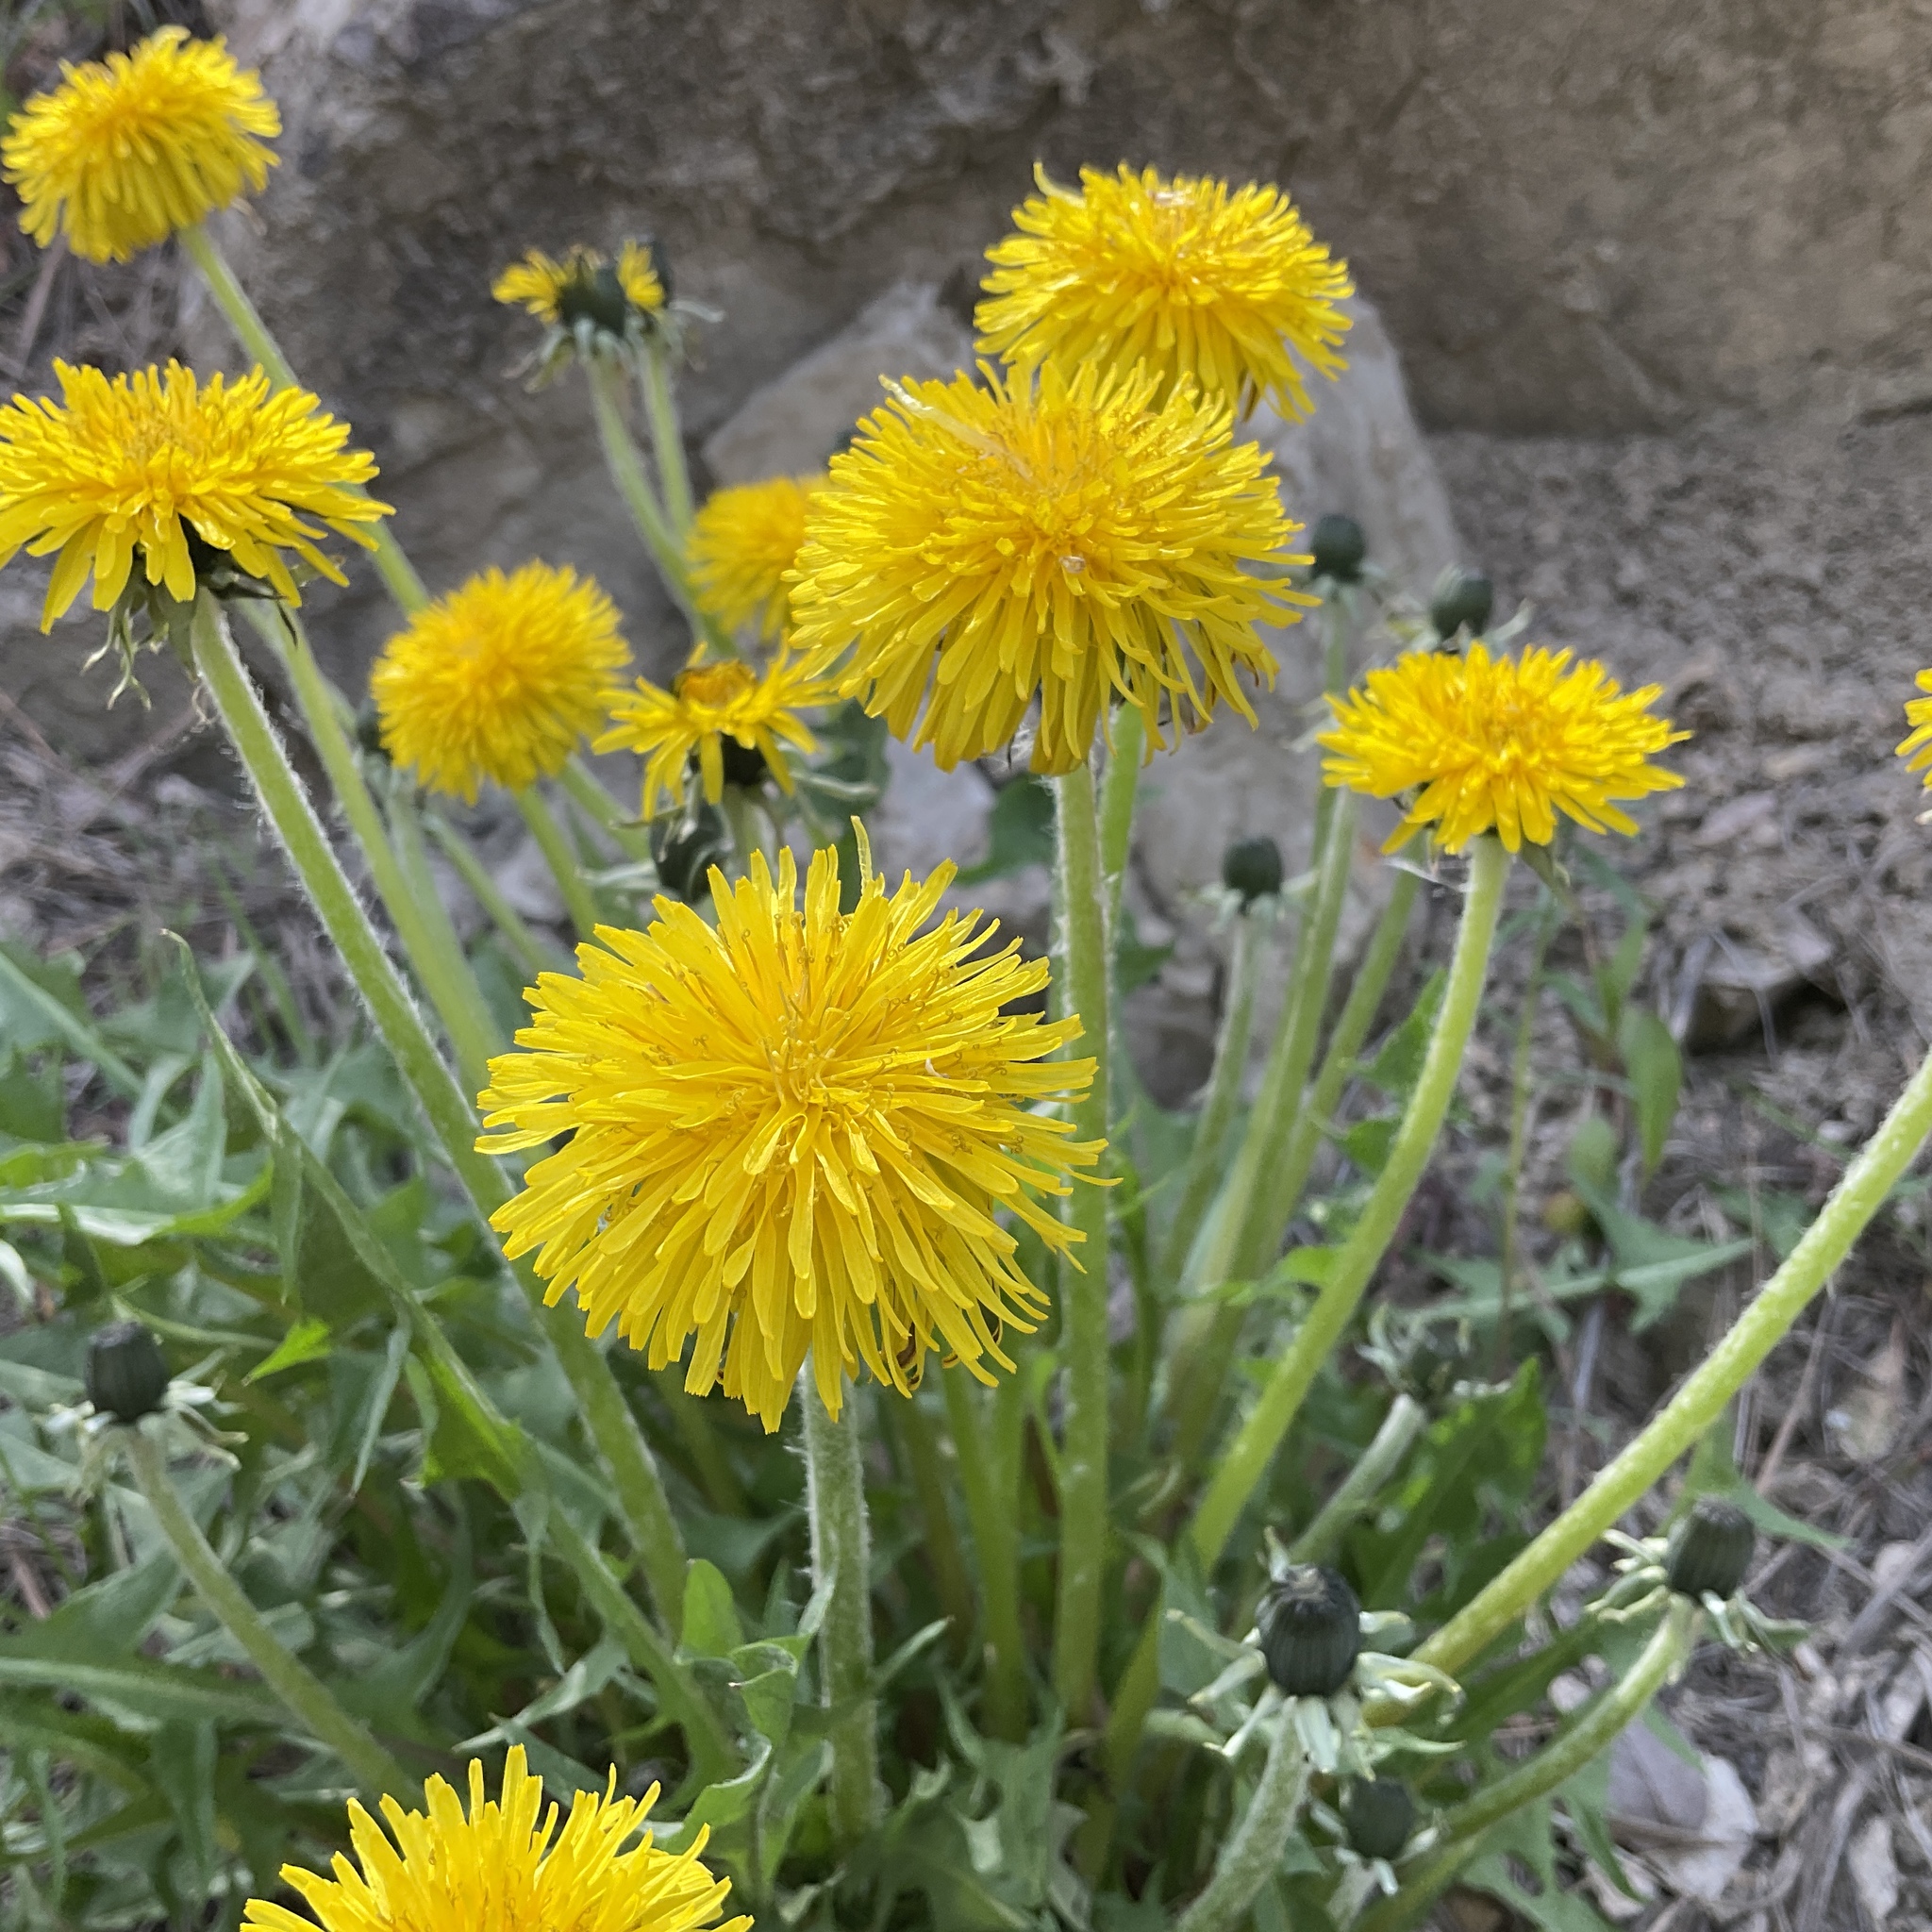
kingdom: Plantae
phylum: Tracheophyta
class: Magnoliopsida
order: Asterales
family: Asteraceae
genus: Taraxacum
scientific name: Taraxacum officinale
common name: Common dandelion
